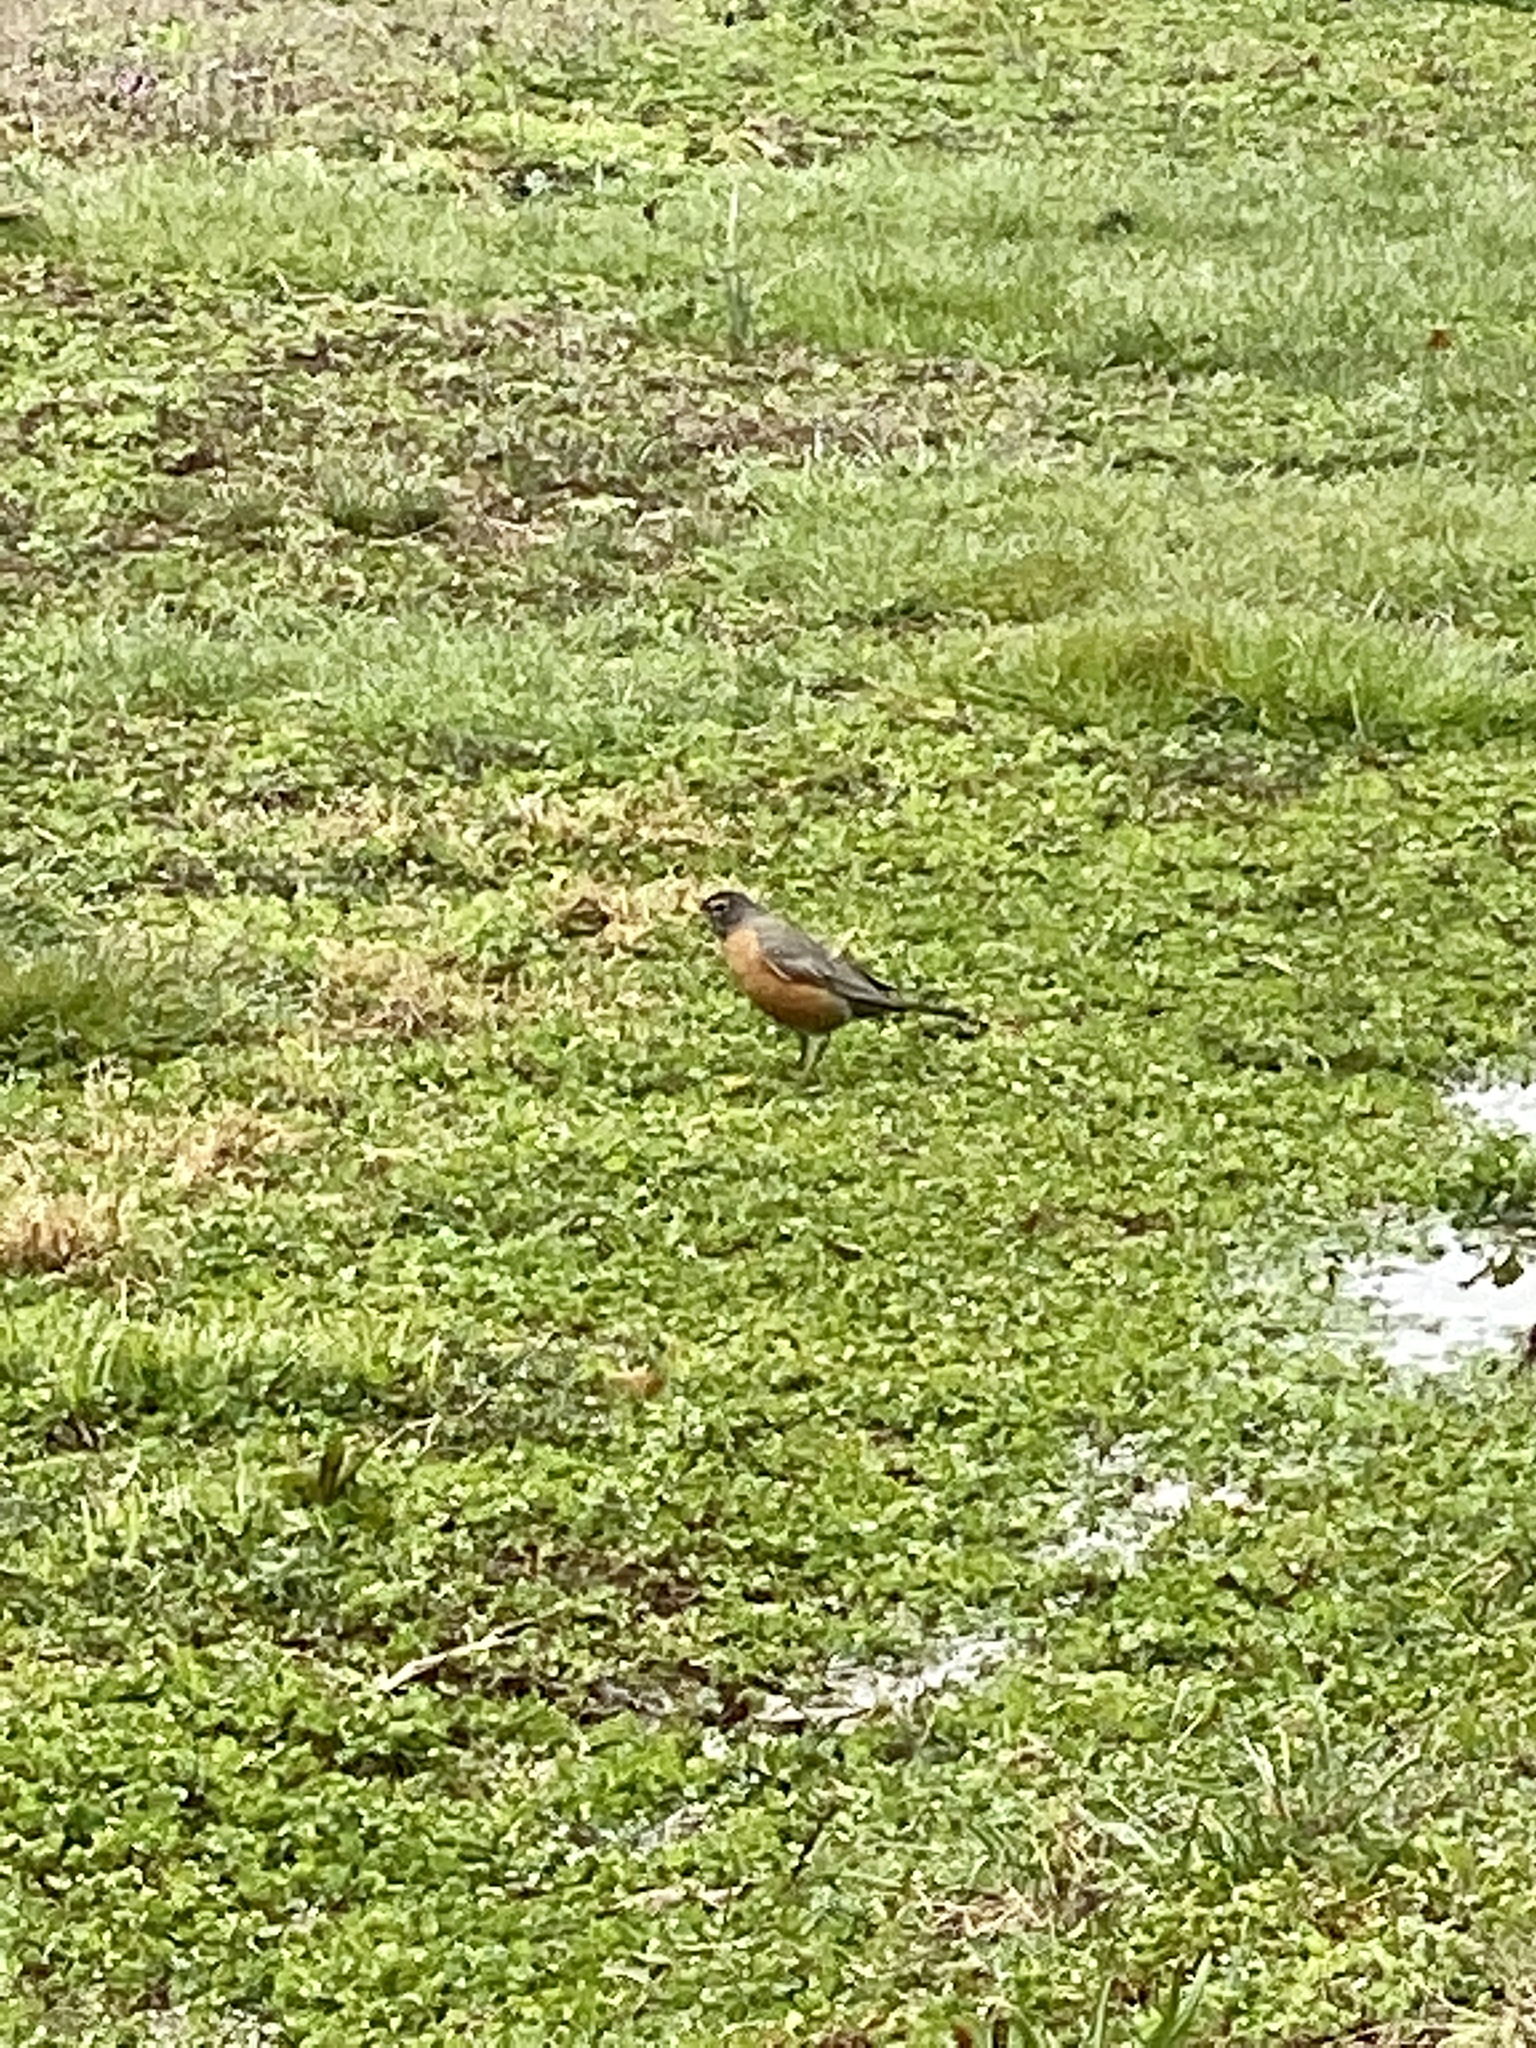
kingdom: Animalia
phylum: Chordata
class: Aves
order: Passeriformes
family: Turdidae
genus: Turdus
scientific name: Turdus migratorius
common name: American robin
